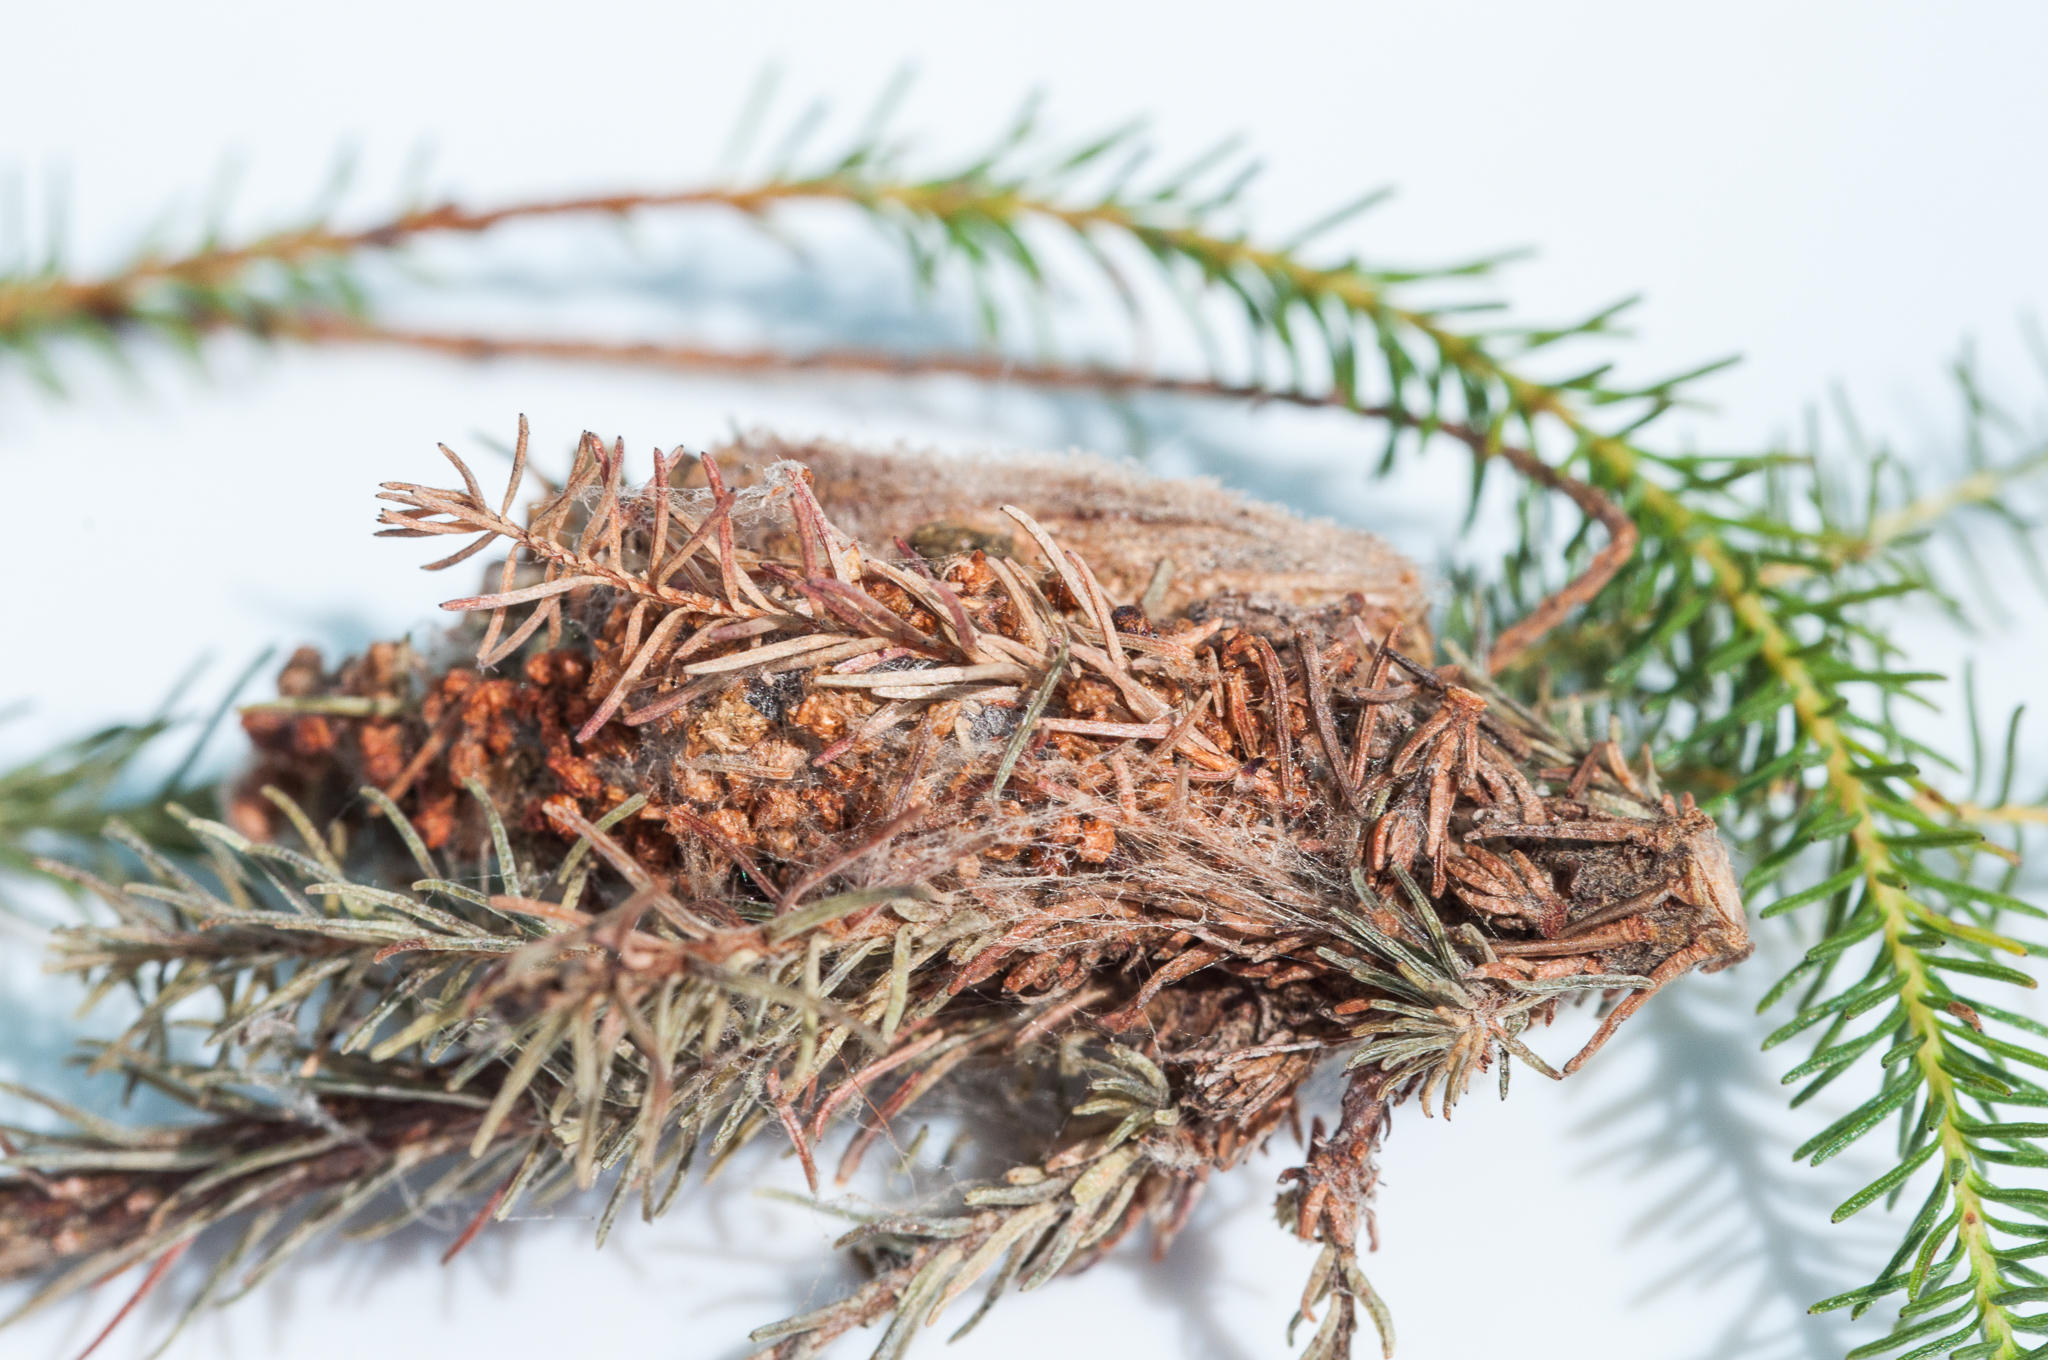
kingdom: Animalia
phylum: Arthropoda
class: Insecta
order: Lepidoptera
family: Pyralidae
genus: Triphassa
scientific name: Triphassa stalachtis
